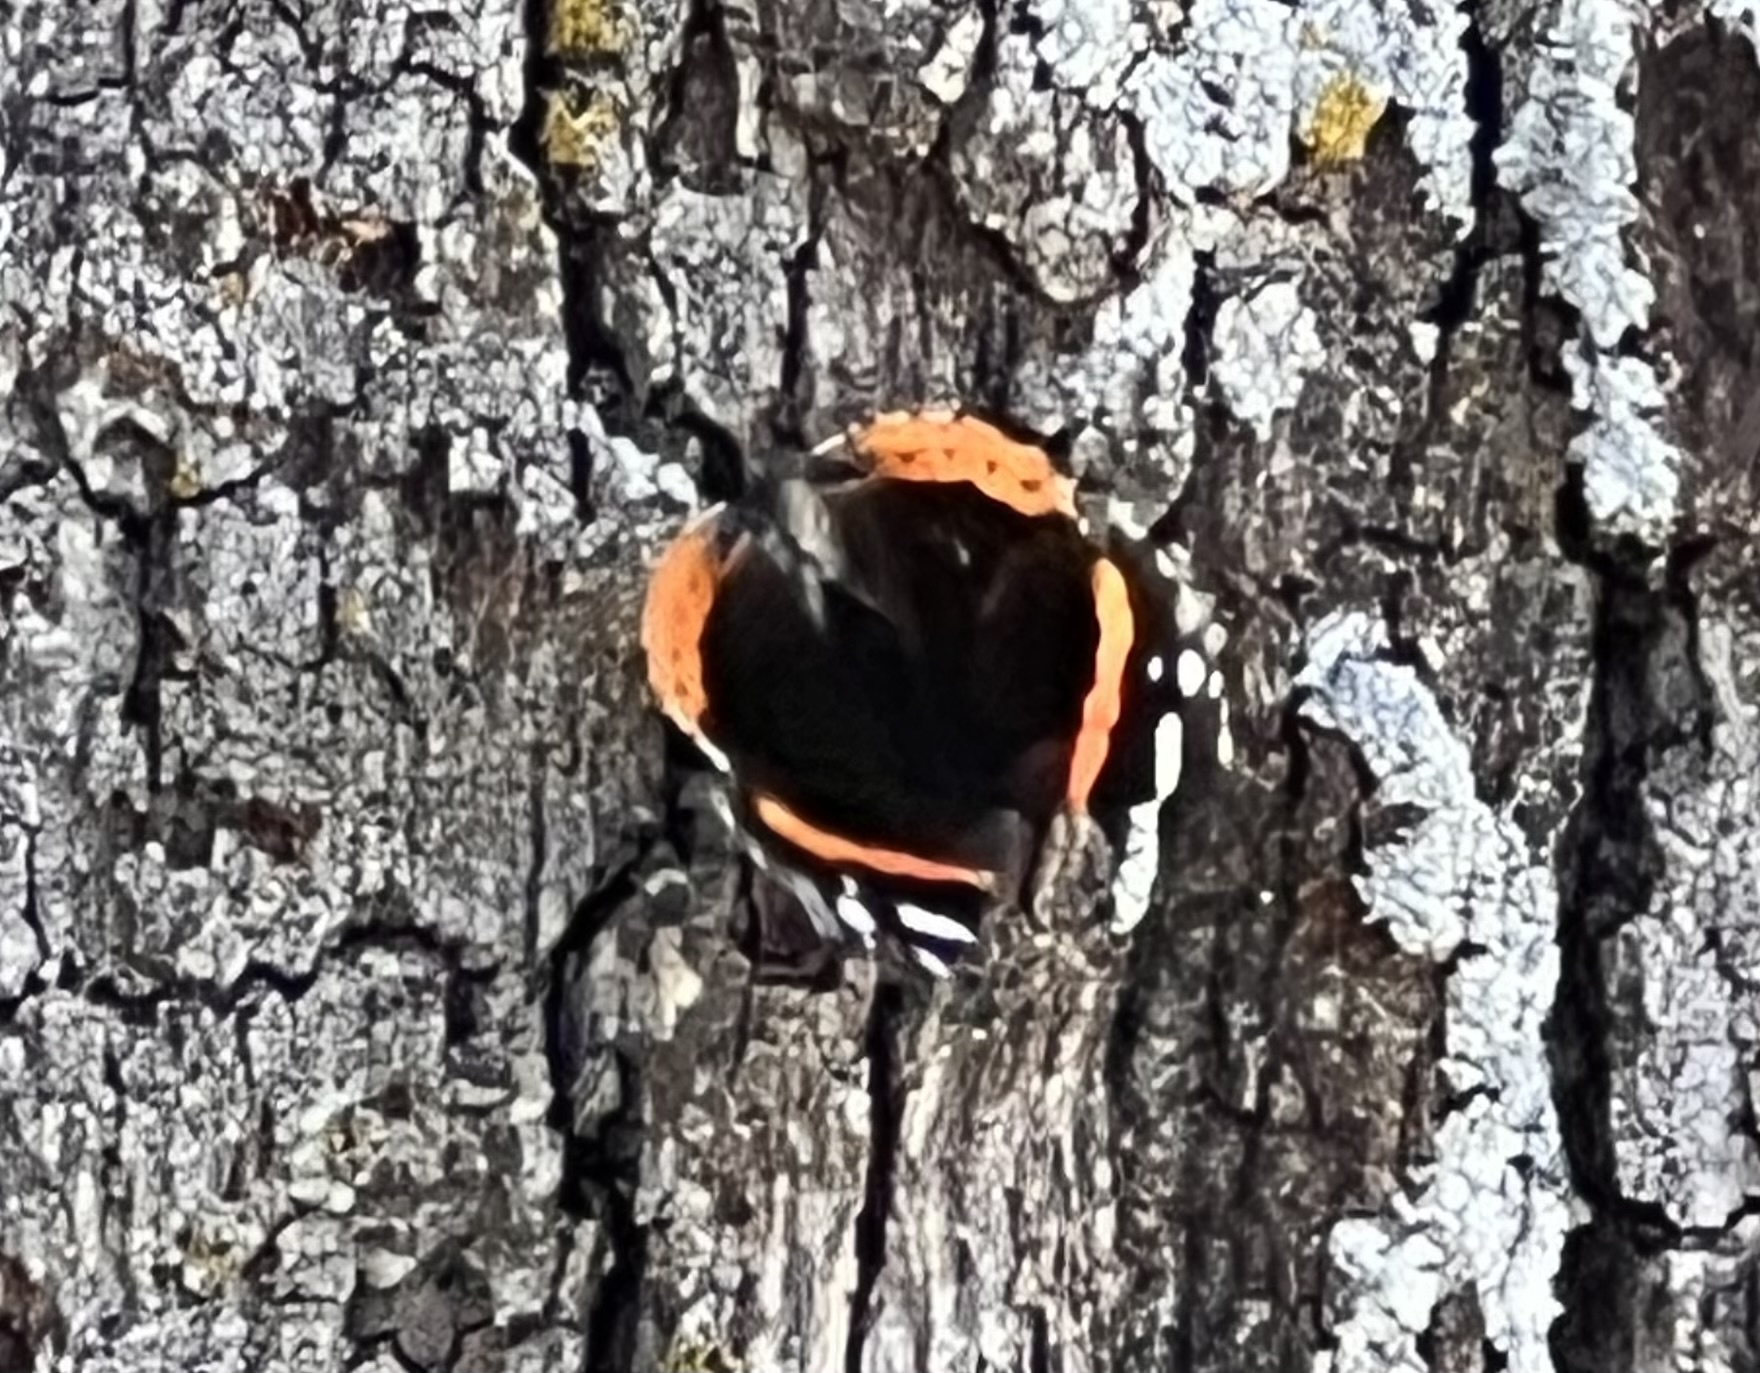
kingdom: Animalia
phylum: Arthropoda
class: Insecta
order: Lepidoptera
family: Nymphalidae
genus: Vanessa
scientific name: Vanessa atalanta
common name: Red admiral
